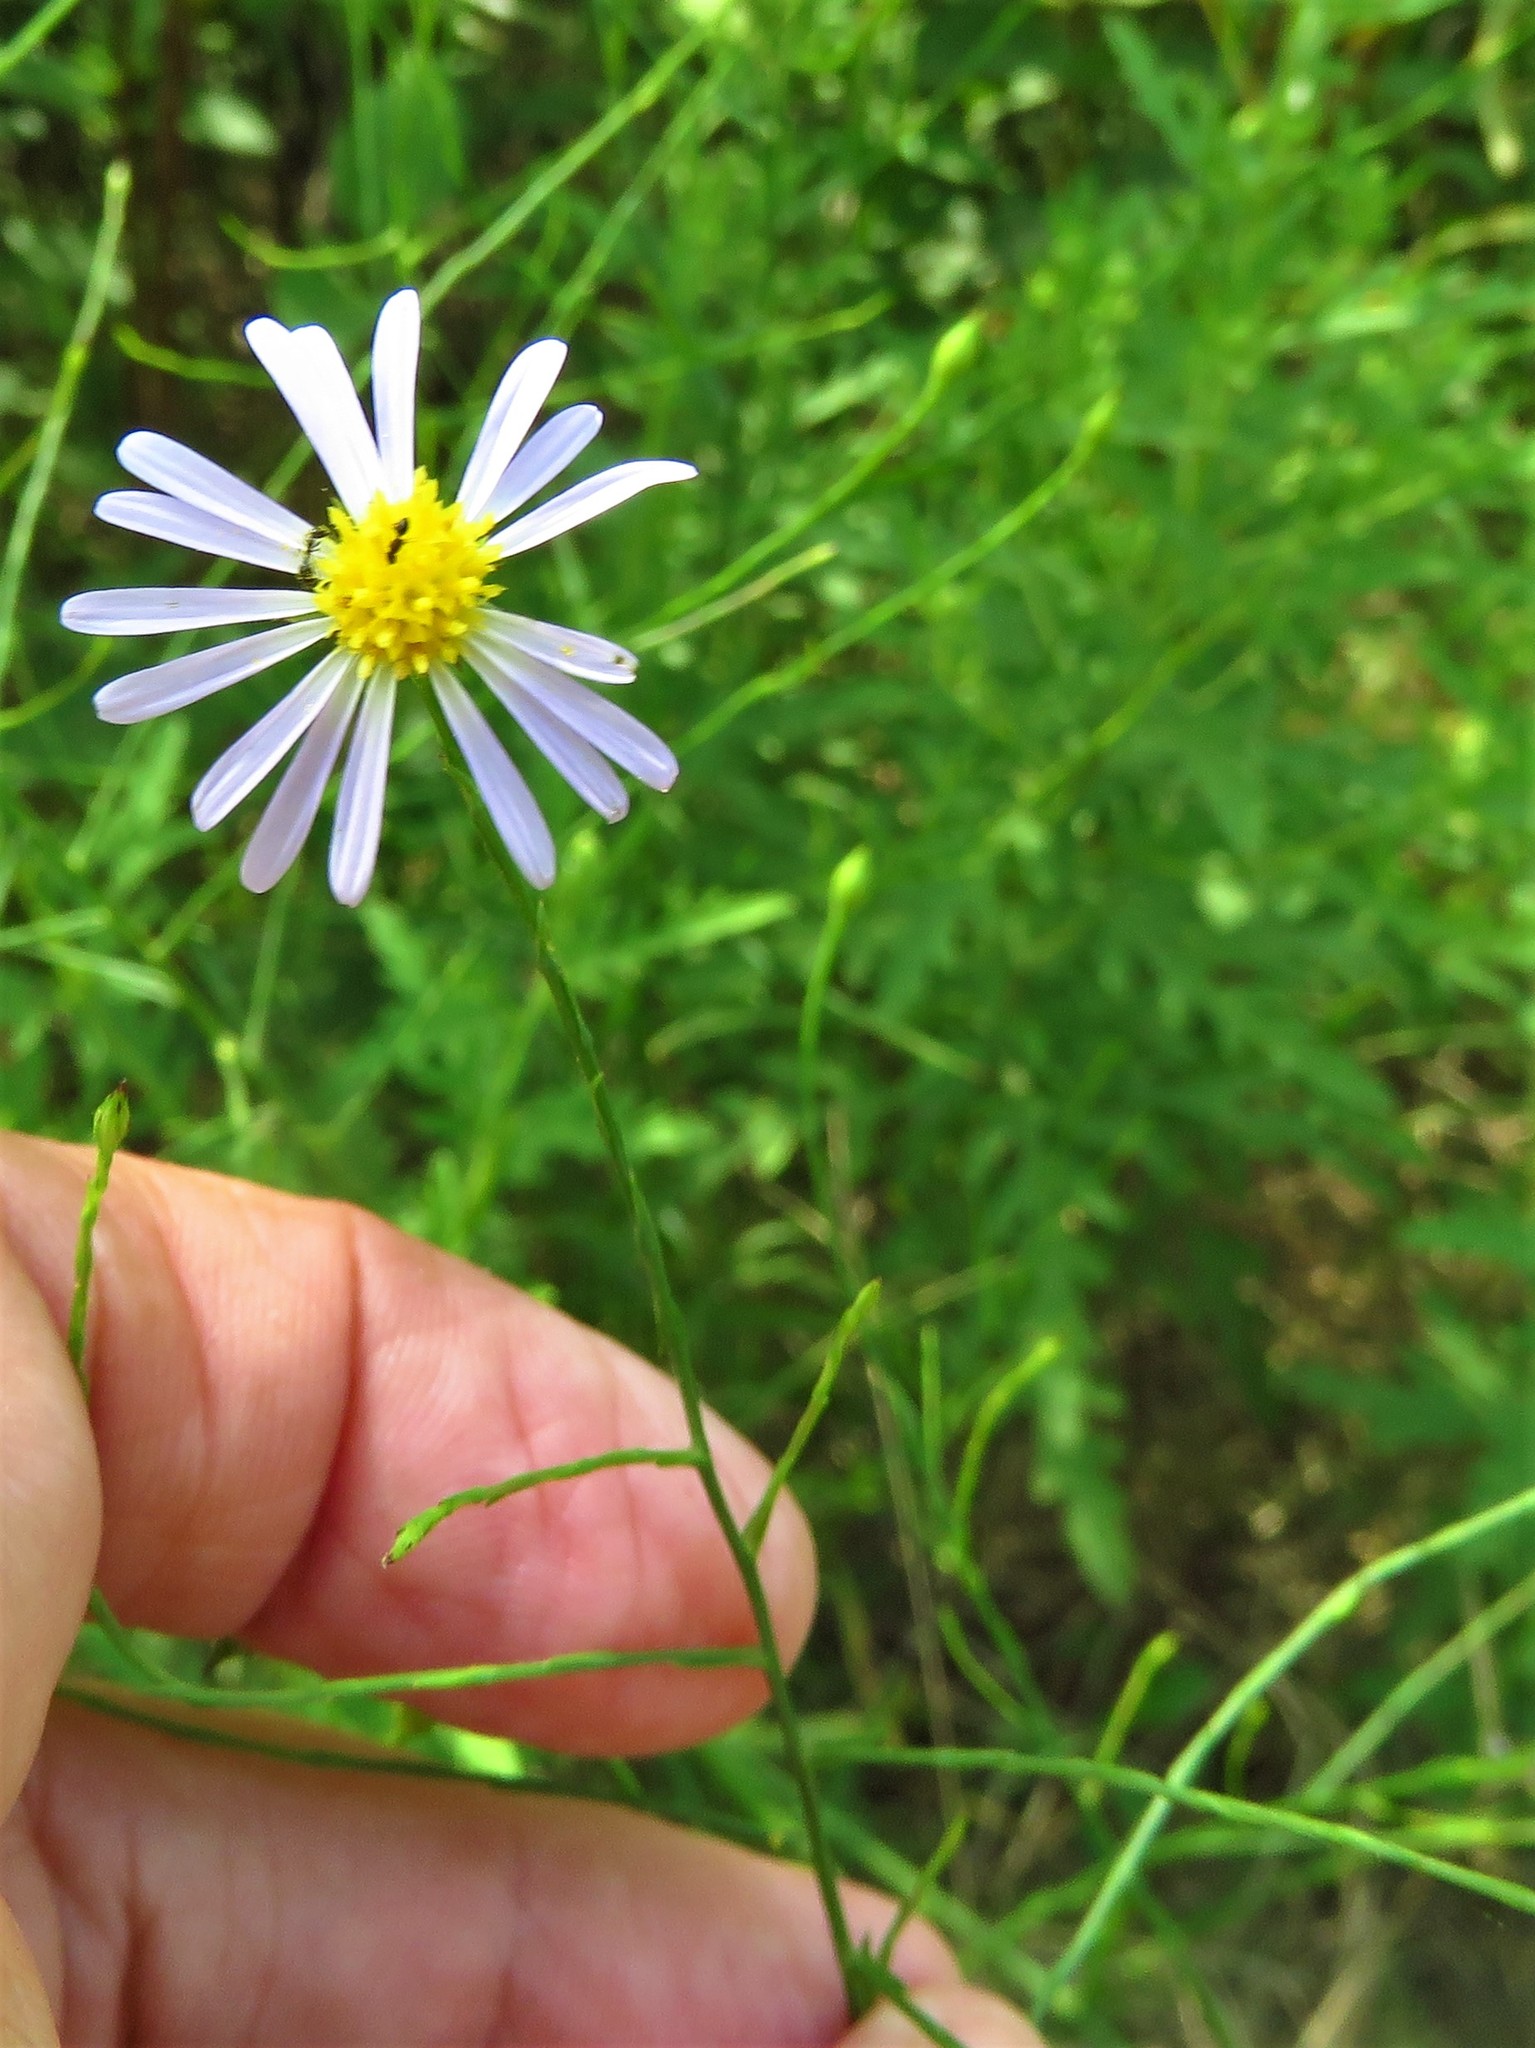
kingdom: Plantae
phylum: Tracheophyta
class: Magnoliopsida
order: Asterales
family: Asteraceae
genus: Symphyotrichum
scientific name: Symphyotrichum divaricatum
